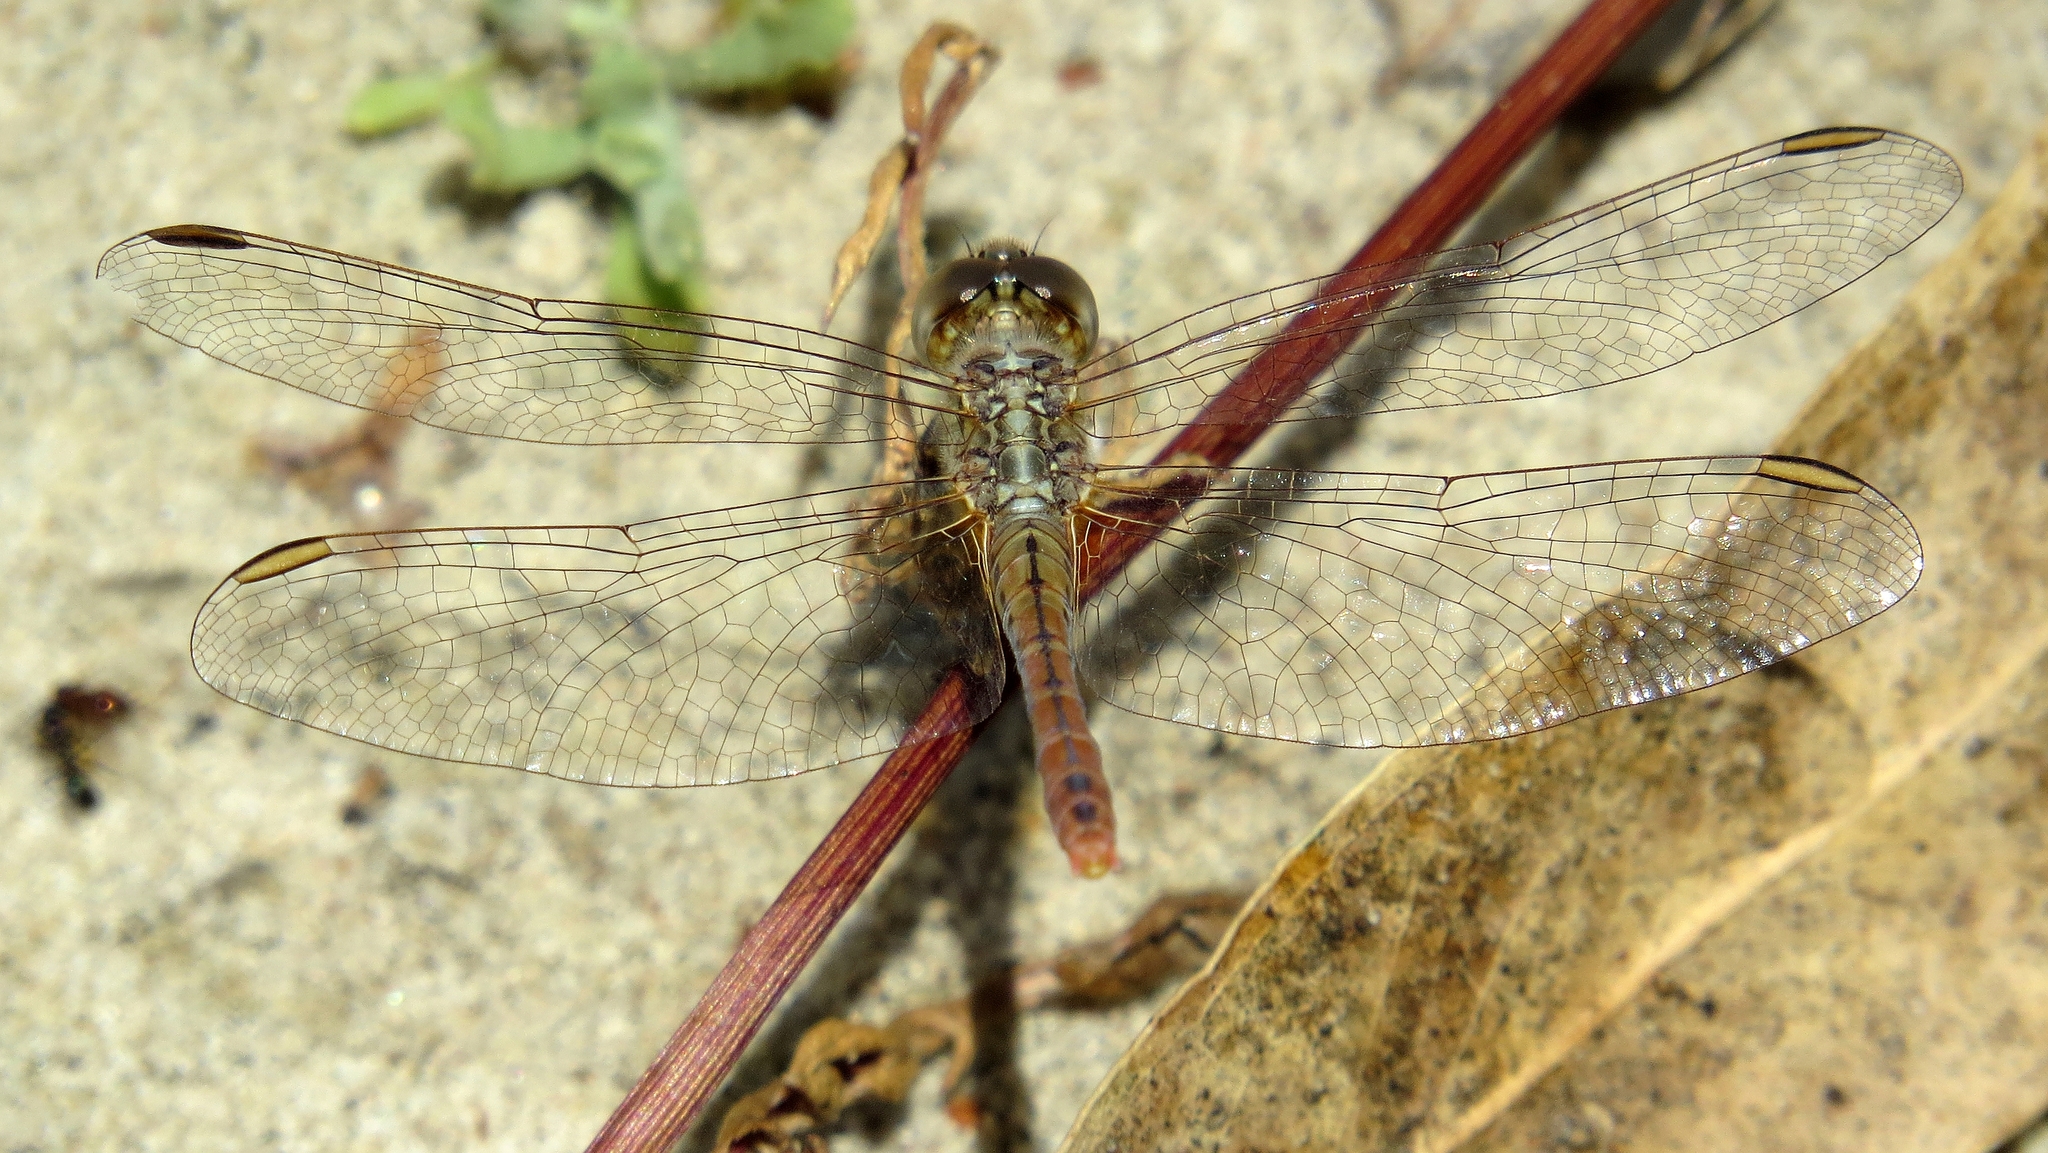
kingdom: Animalia
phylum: Arthropoda
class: Insecta
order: Odonata
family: Libellulidae
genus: Diplacodes
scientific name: Diplacodes bipunctata
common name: Red percher dragonfly
